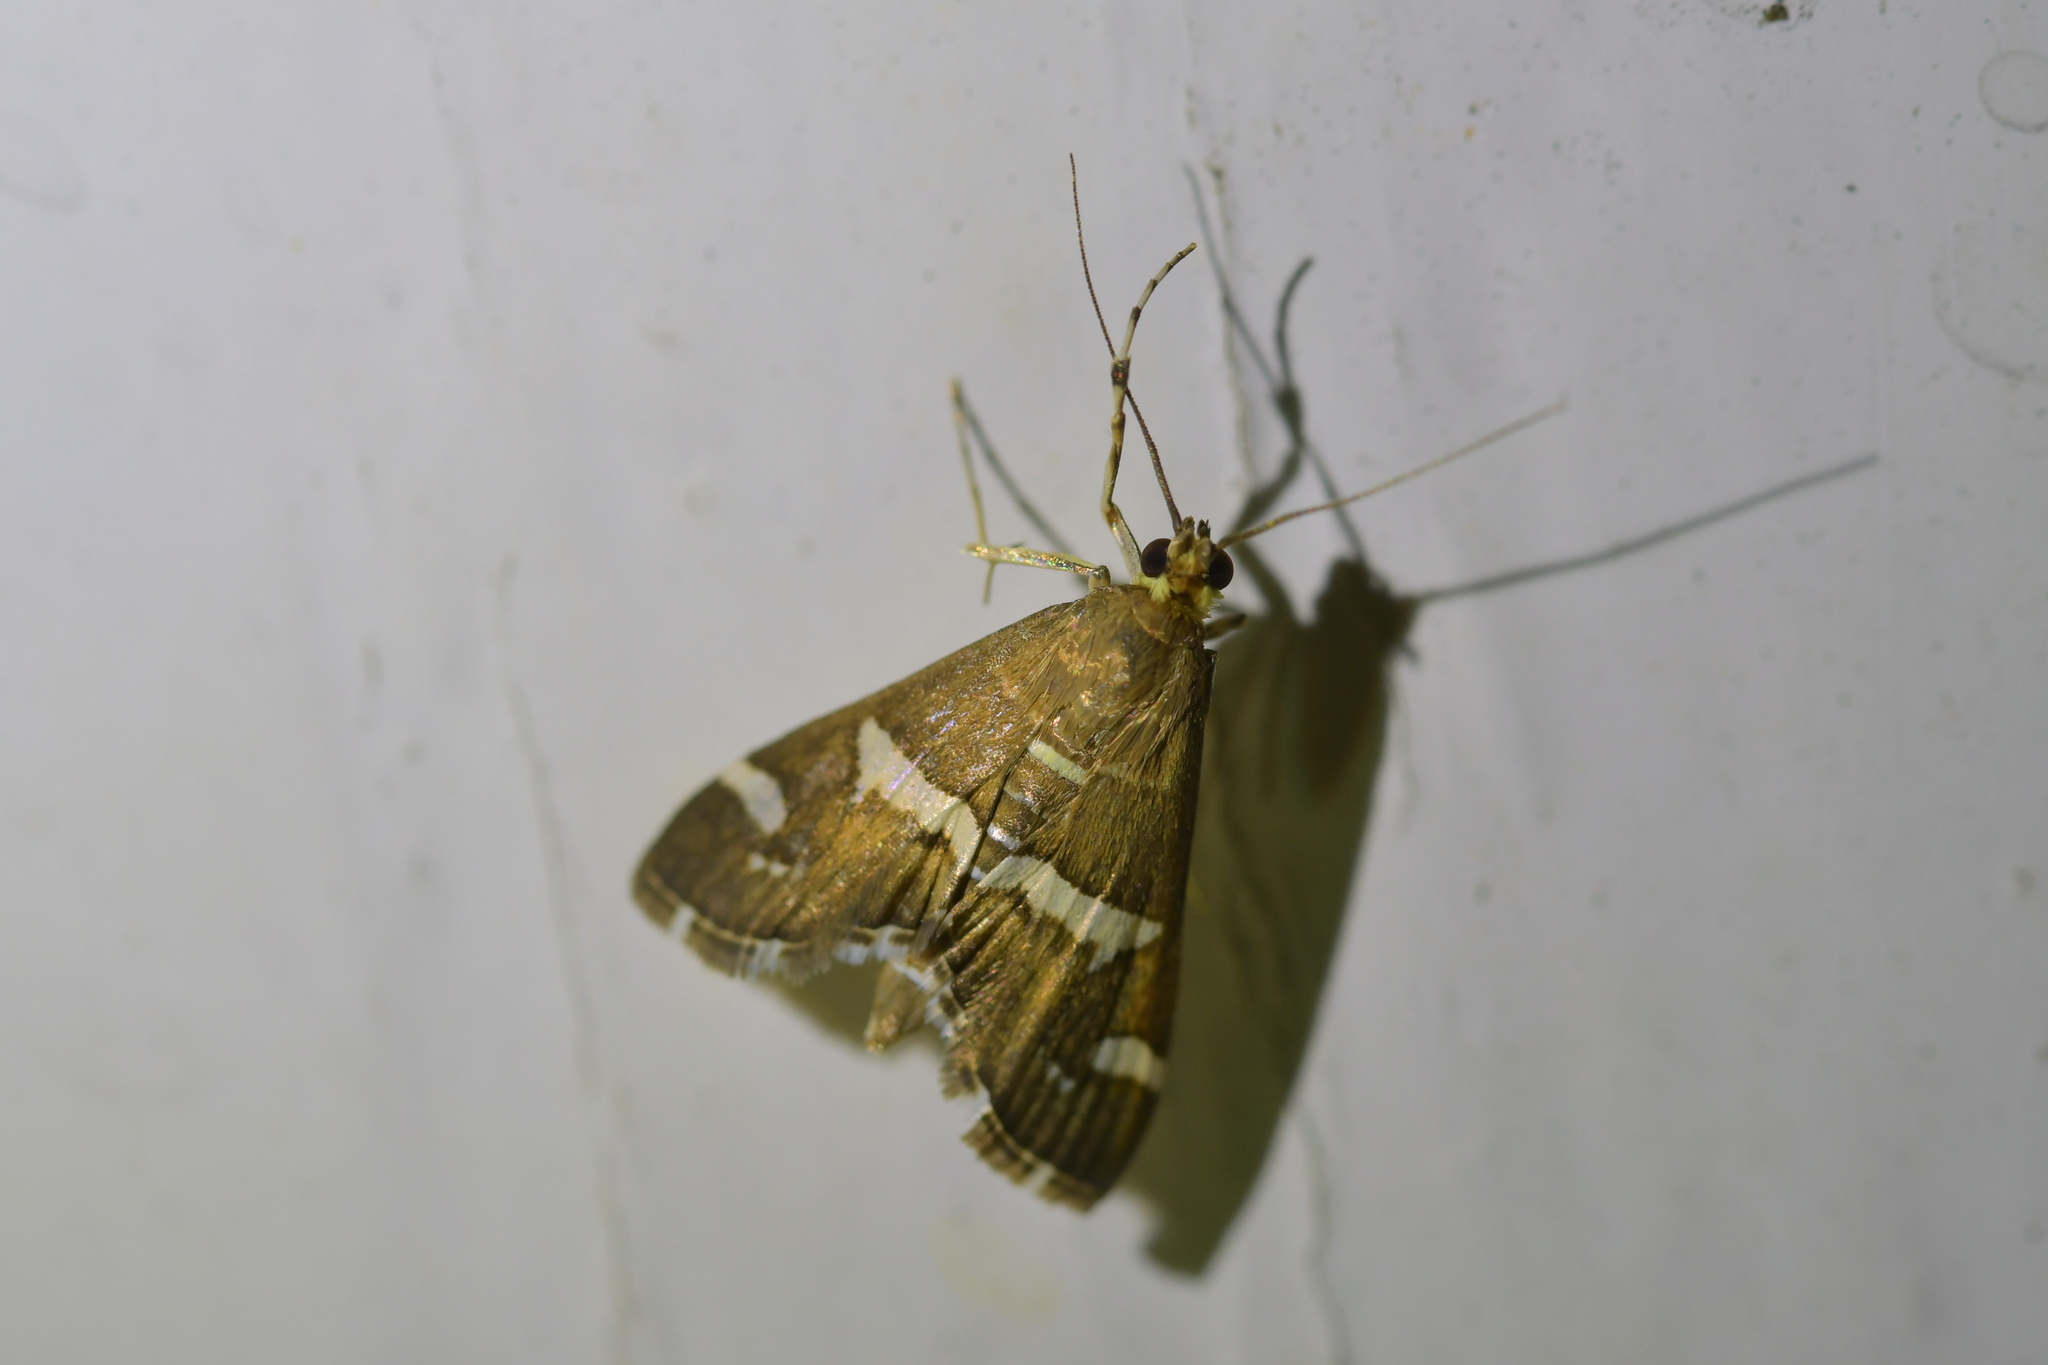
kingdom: Animalia
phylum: Arthropoda
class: Insecta
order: Lepidoptera
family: Crambidae
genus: Spoladea
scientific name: Spoladea recurvalis
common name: Beet webworm moth
